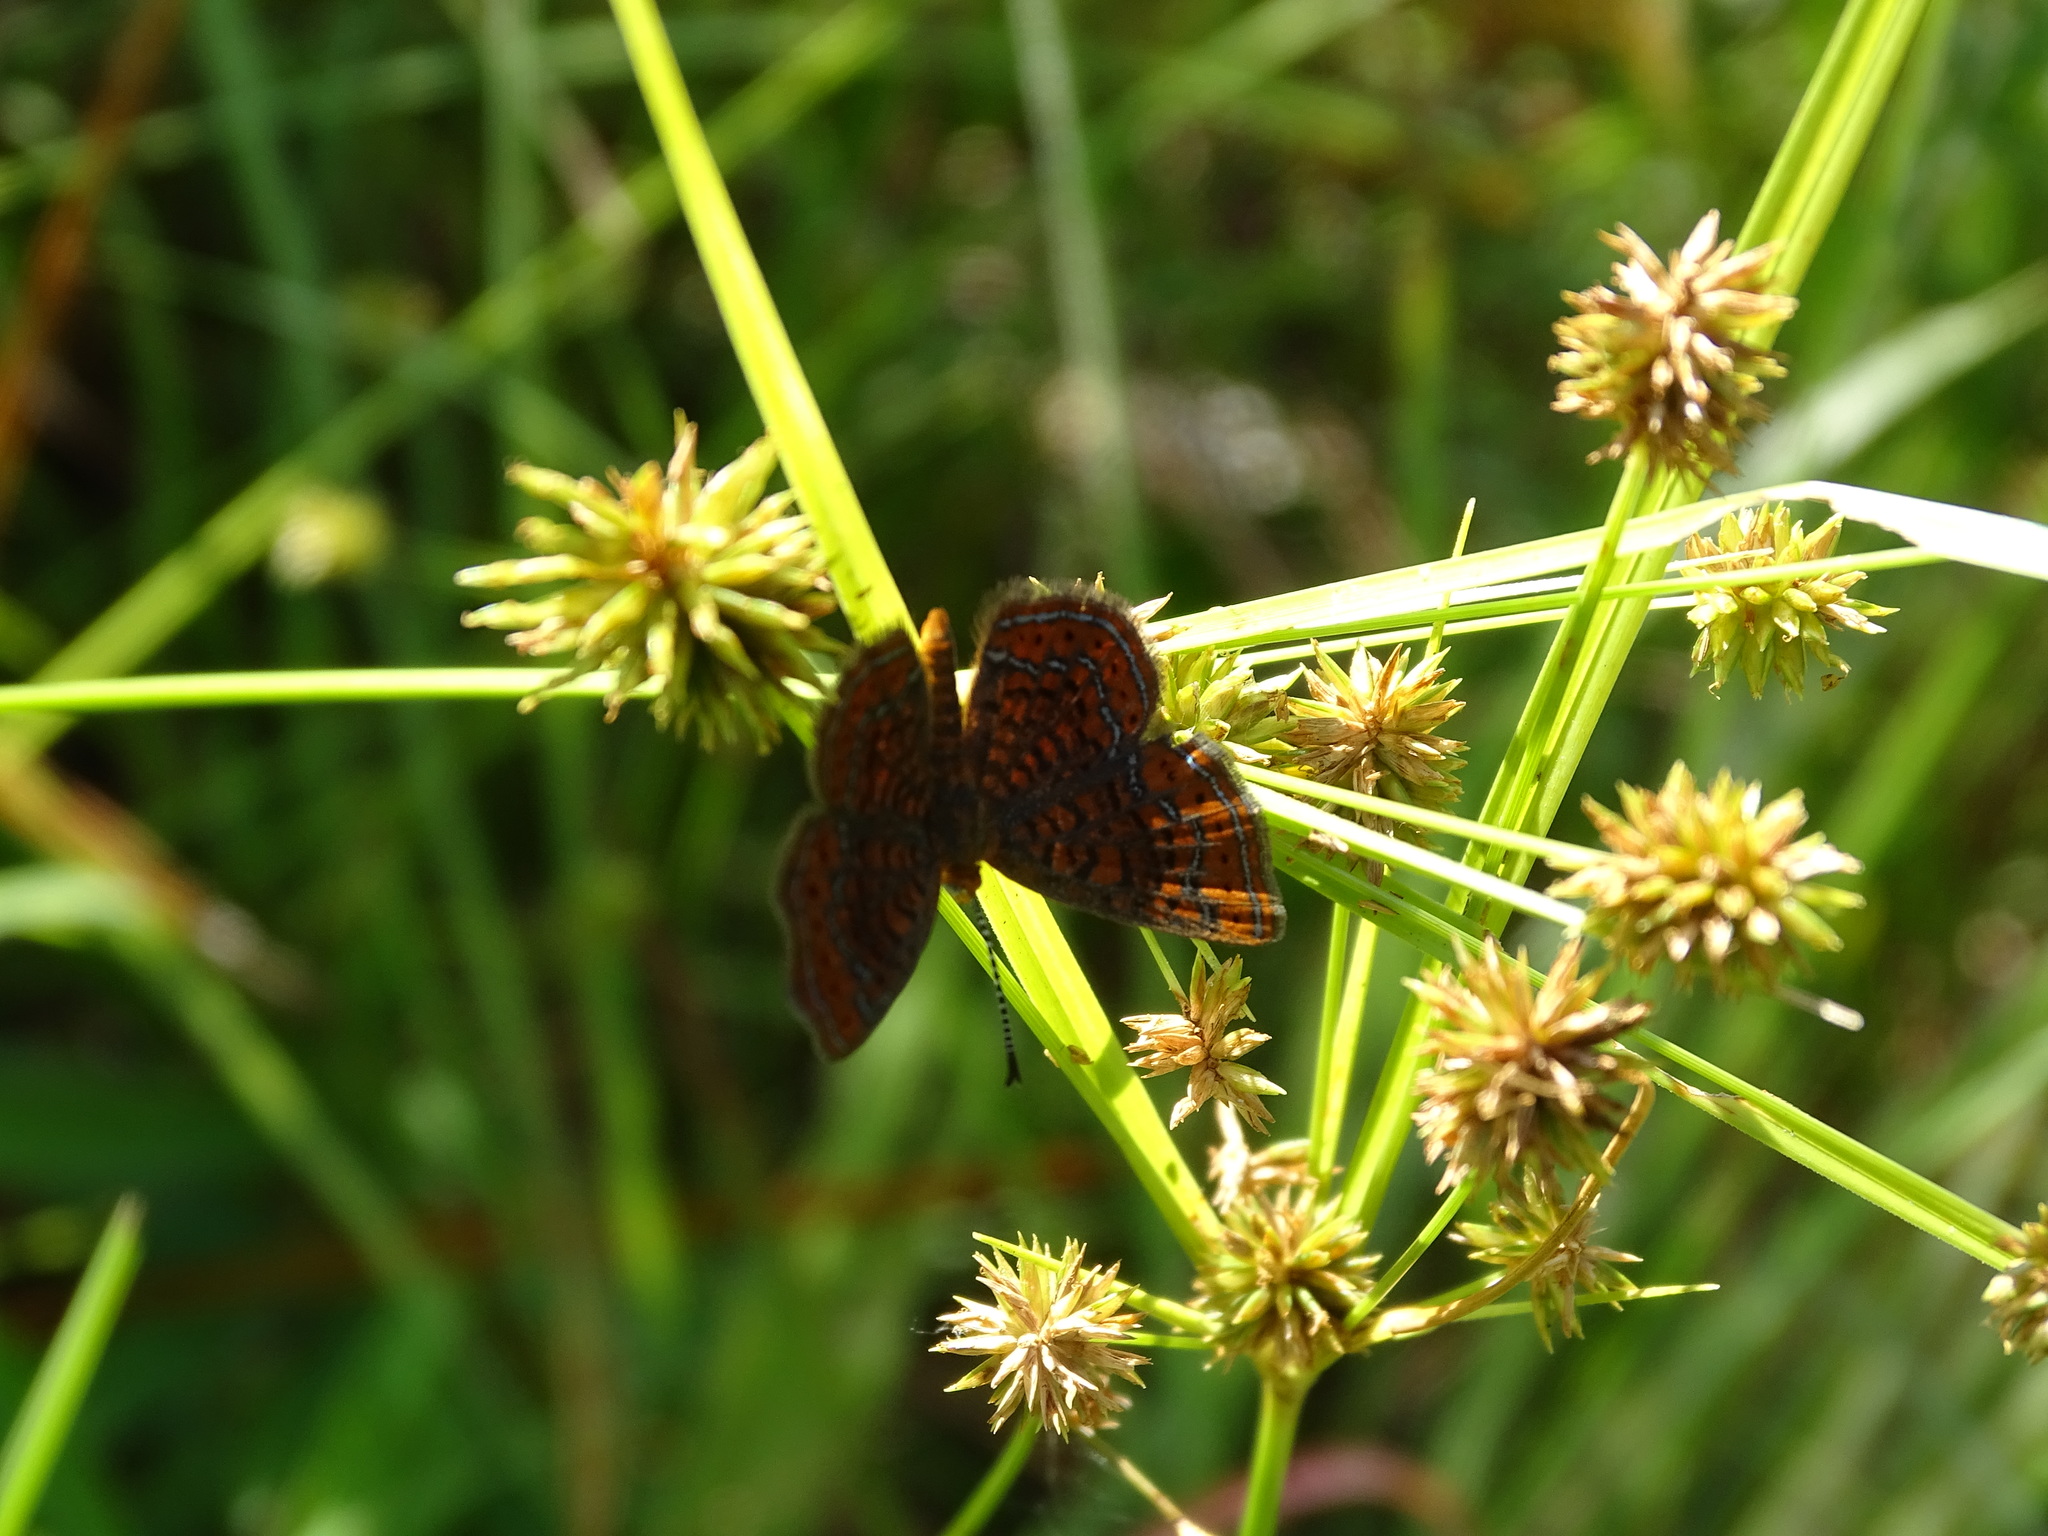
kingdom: Animalia
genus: Calephelis
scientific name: Calephelis virginiensis
